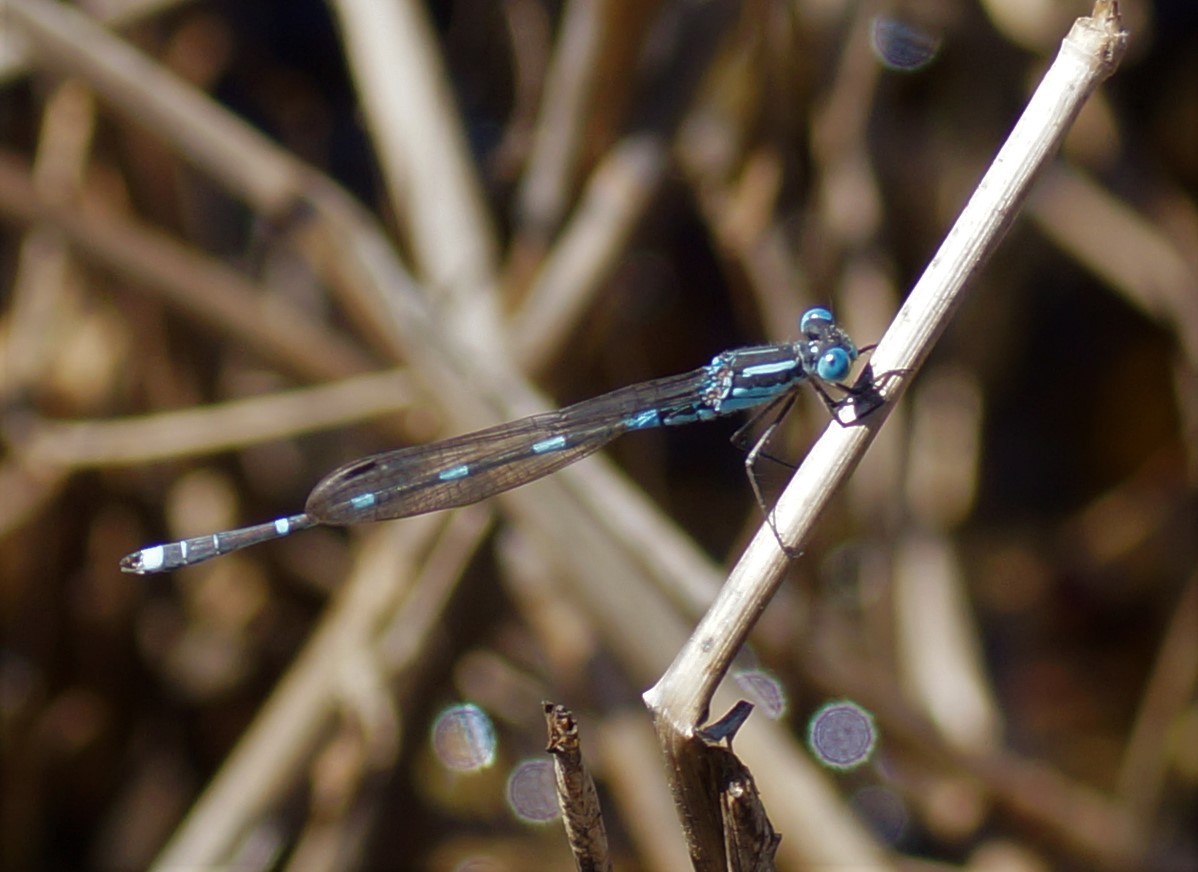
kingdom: Animalia
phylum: Arthropoda
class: Insecta
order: Odonata
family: Lestidae
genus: Austrolestes
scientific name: Austrolestes leda
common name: Wandering ringtail
